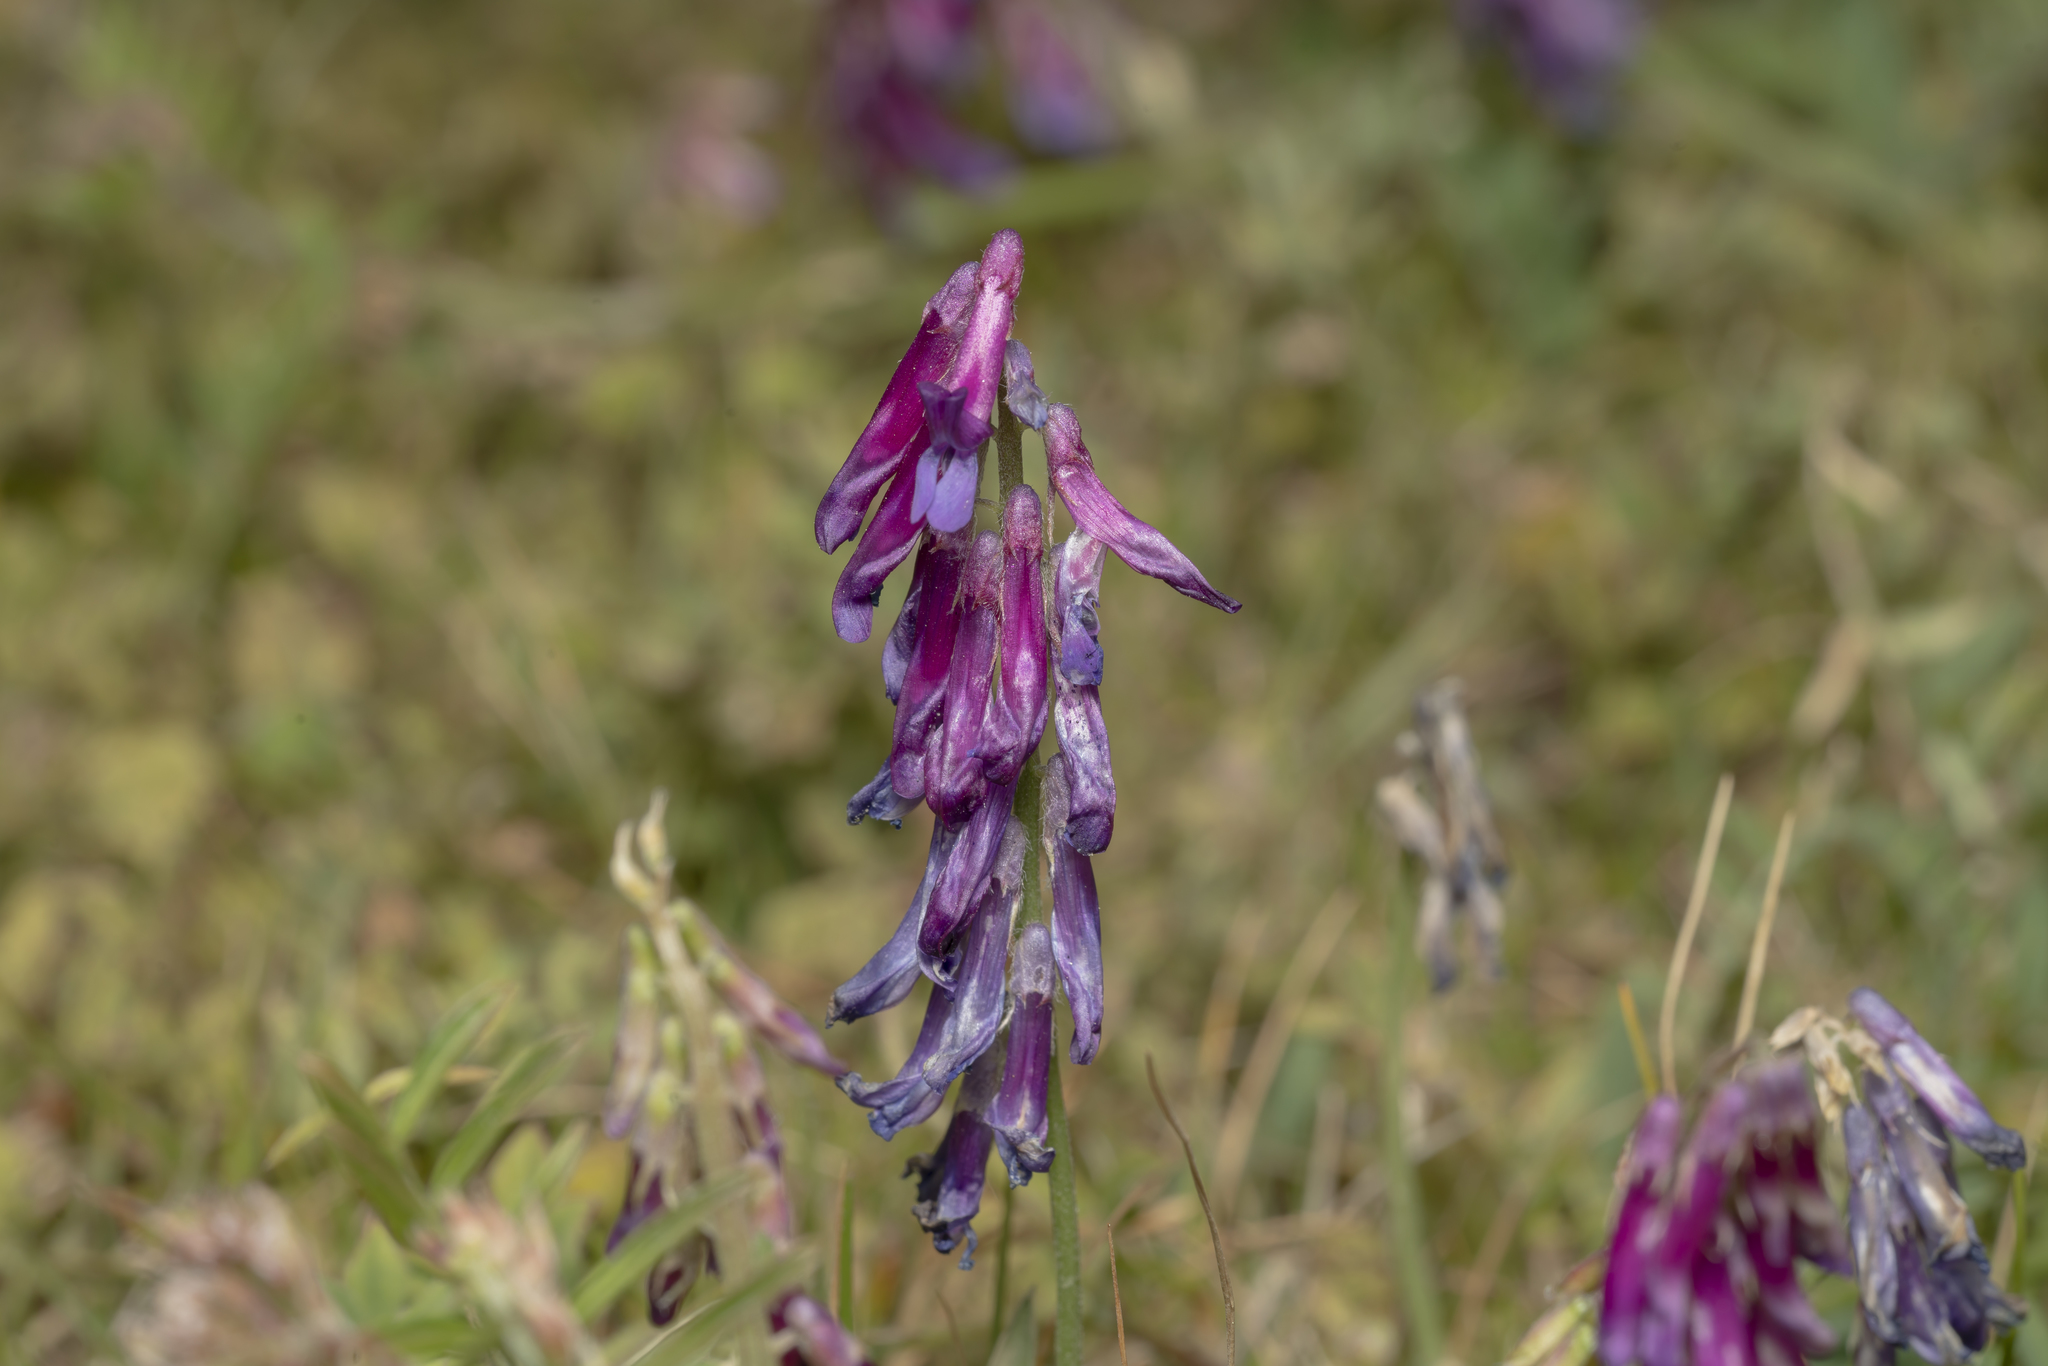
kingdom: Plantae
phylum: Tracheophyta
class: Magnoliopsida
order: Fabales
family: Fabaceae
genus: Vicia
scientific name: Vicia eriocarpa
